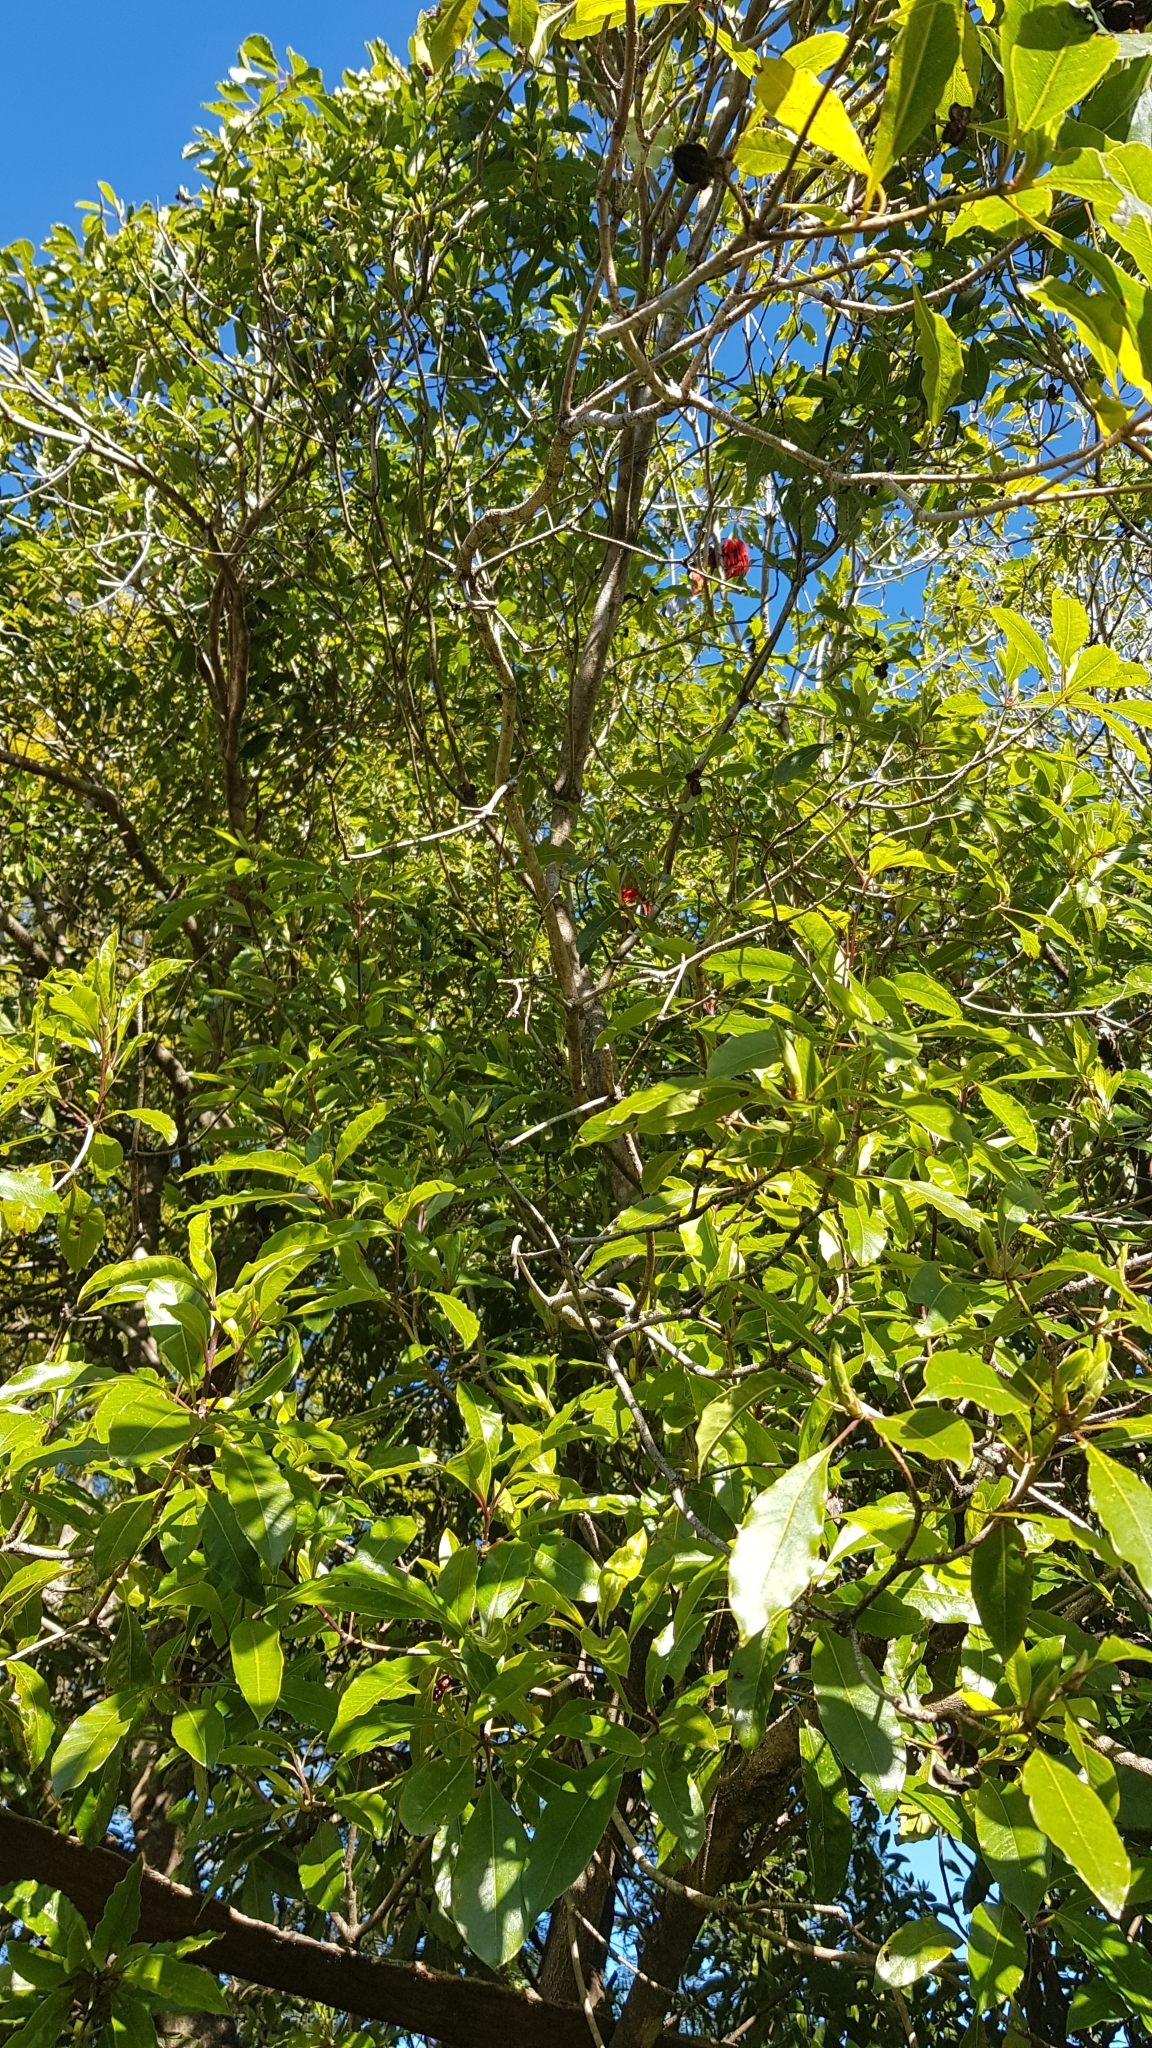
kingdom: Animalia
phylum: Chordata
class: Aves
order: Psittaciformes
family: Psittacidae
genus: Platycercus
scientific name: Platycercus elegans
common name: Crimson rosella
